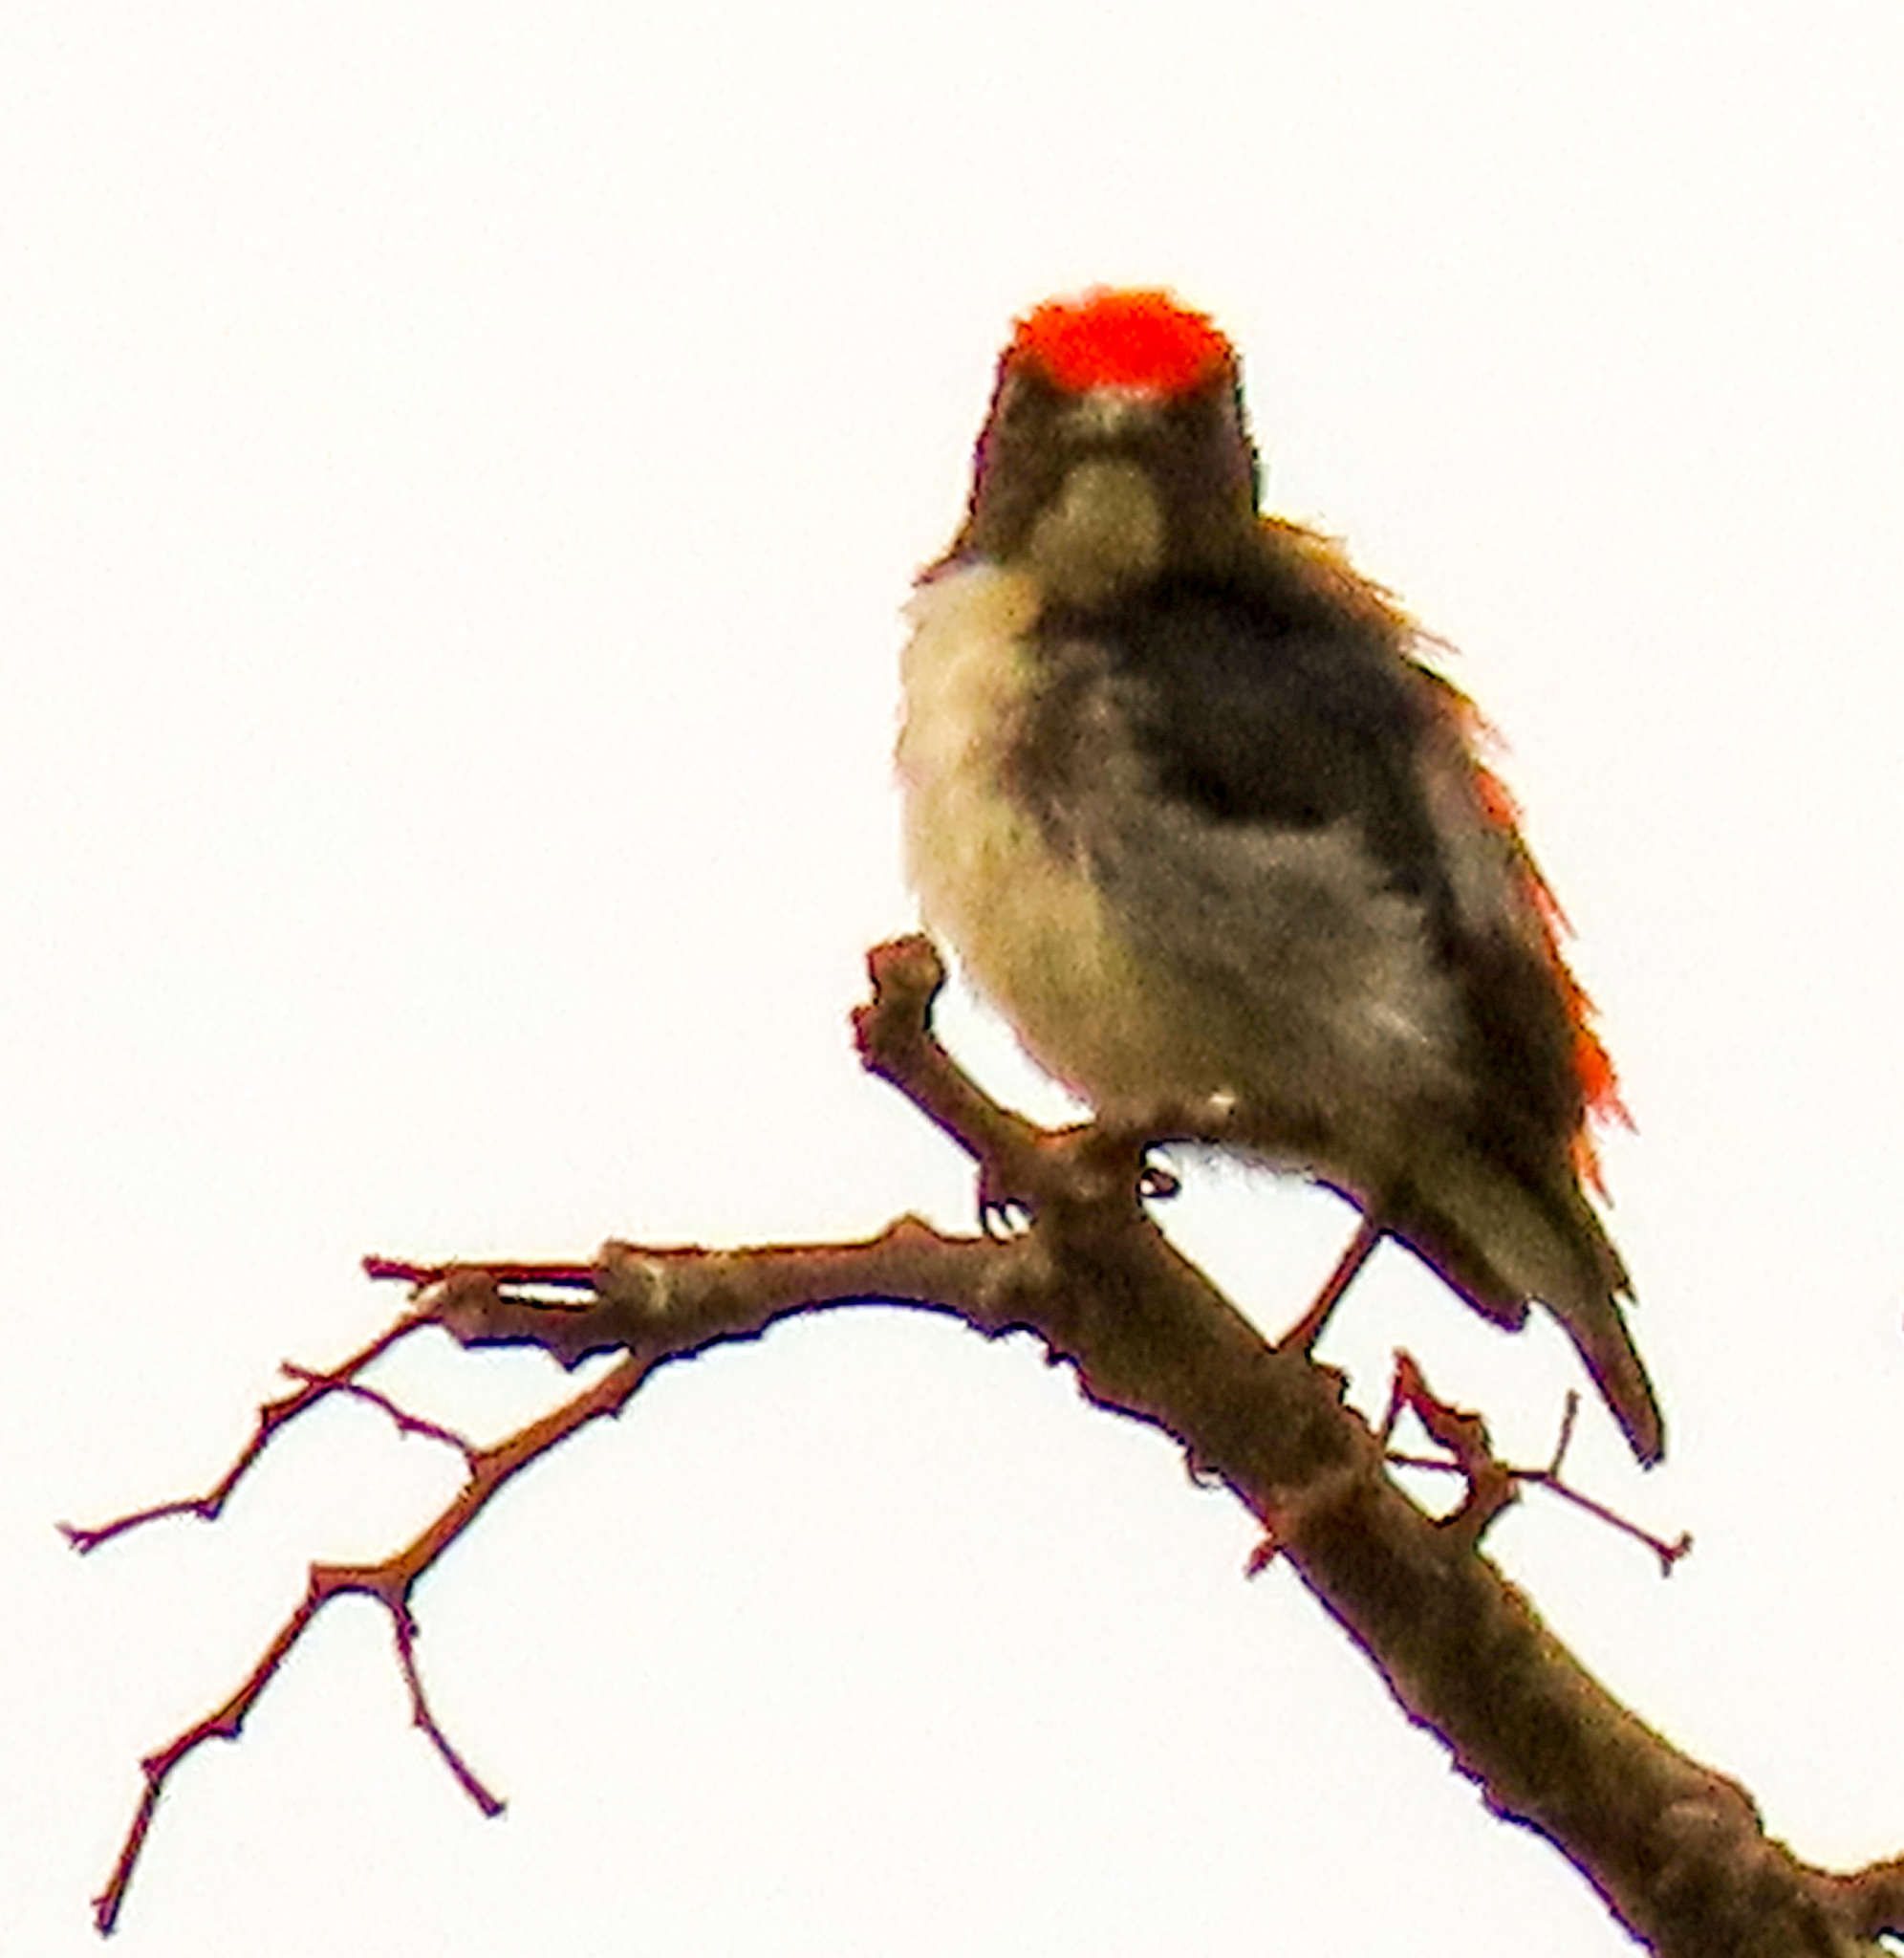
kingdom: Animalia
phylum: Chordata
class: Aves
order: Passeriformes
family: Dicaeidae
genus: Dicaeum
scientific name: Dicaeum cruentatum
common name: Scarlet-backed flowerpecker
